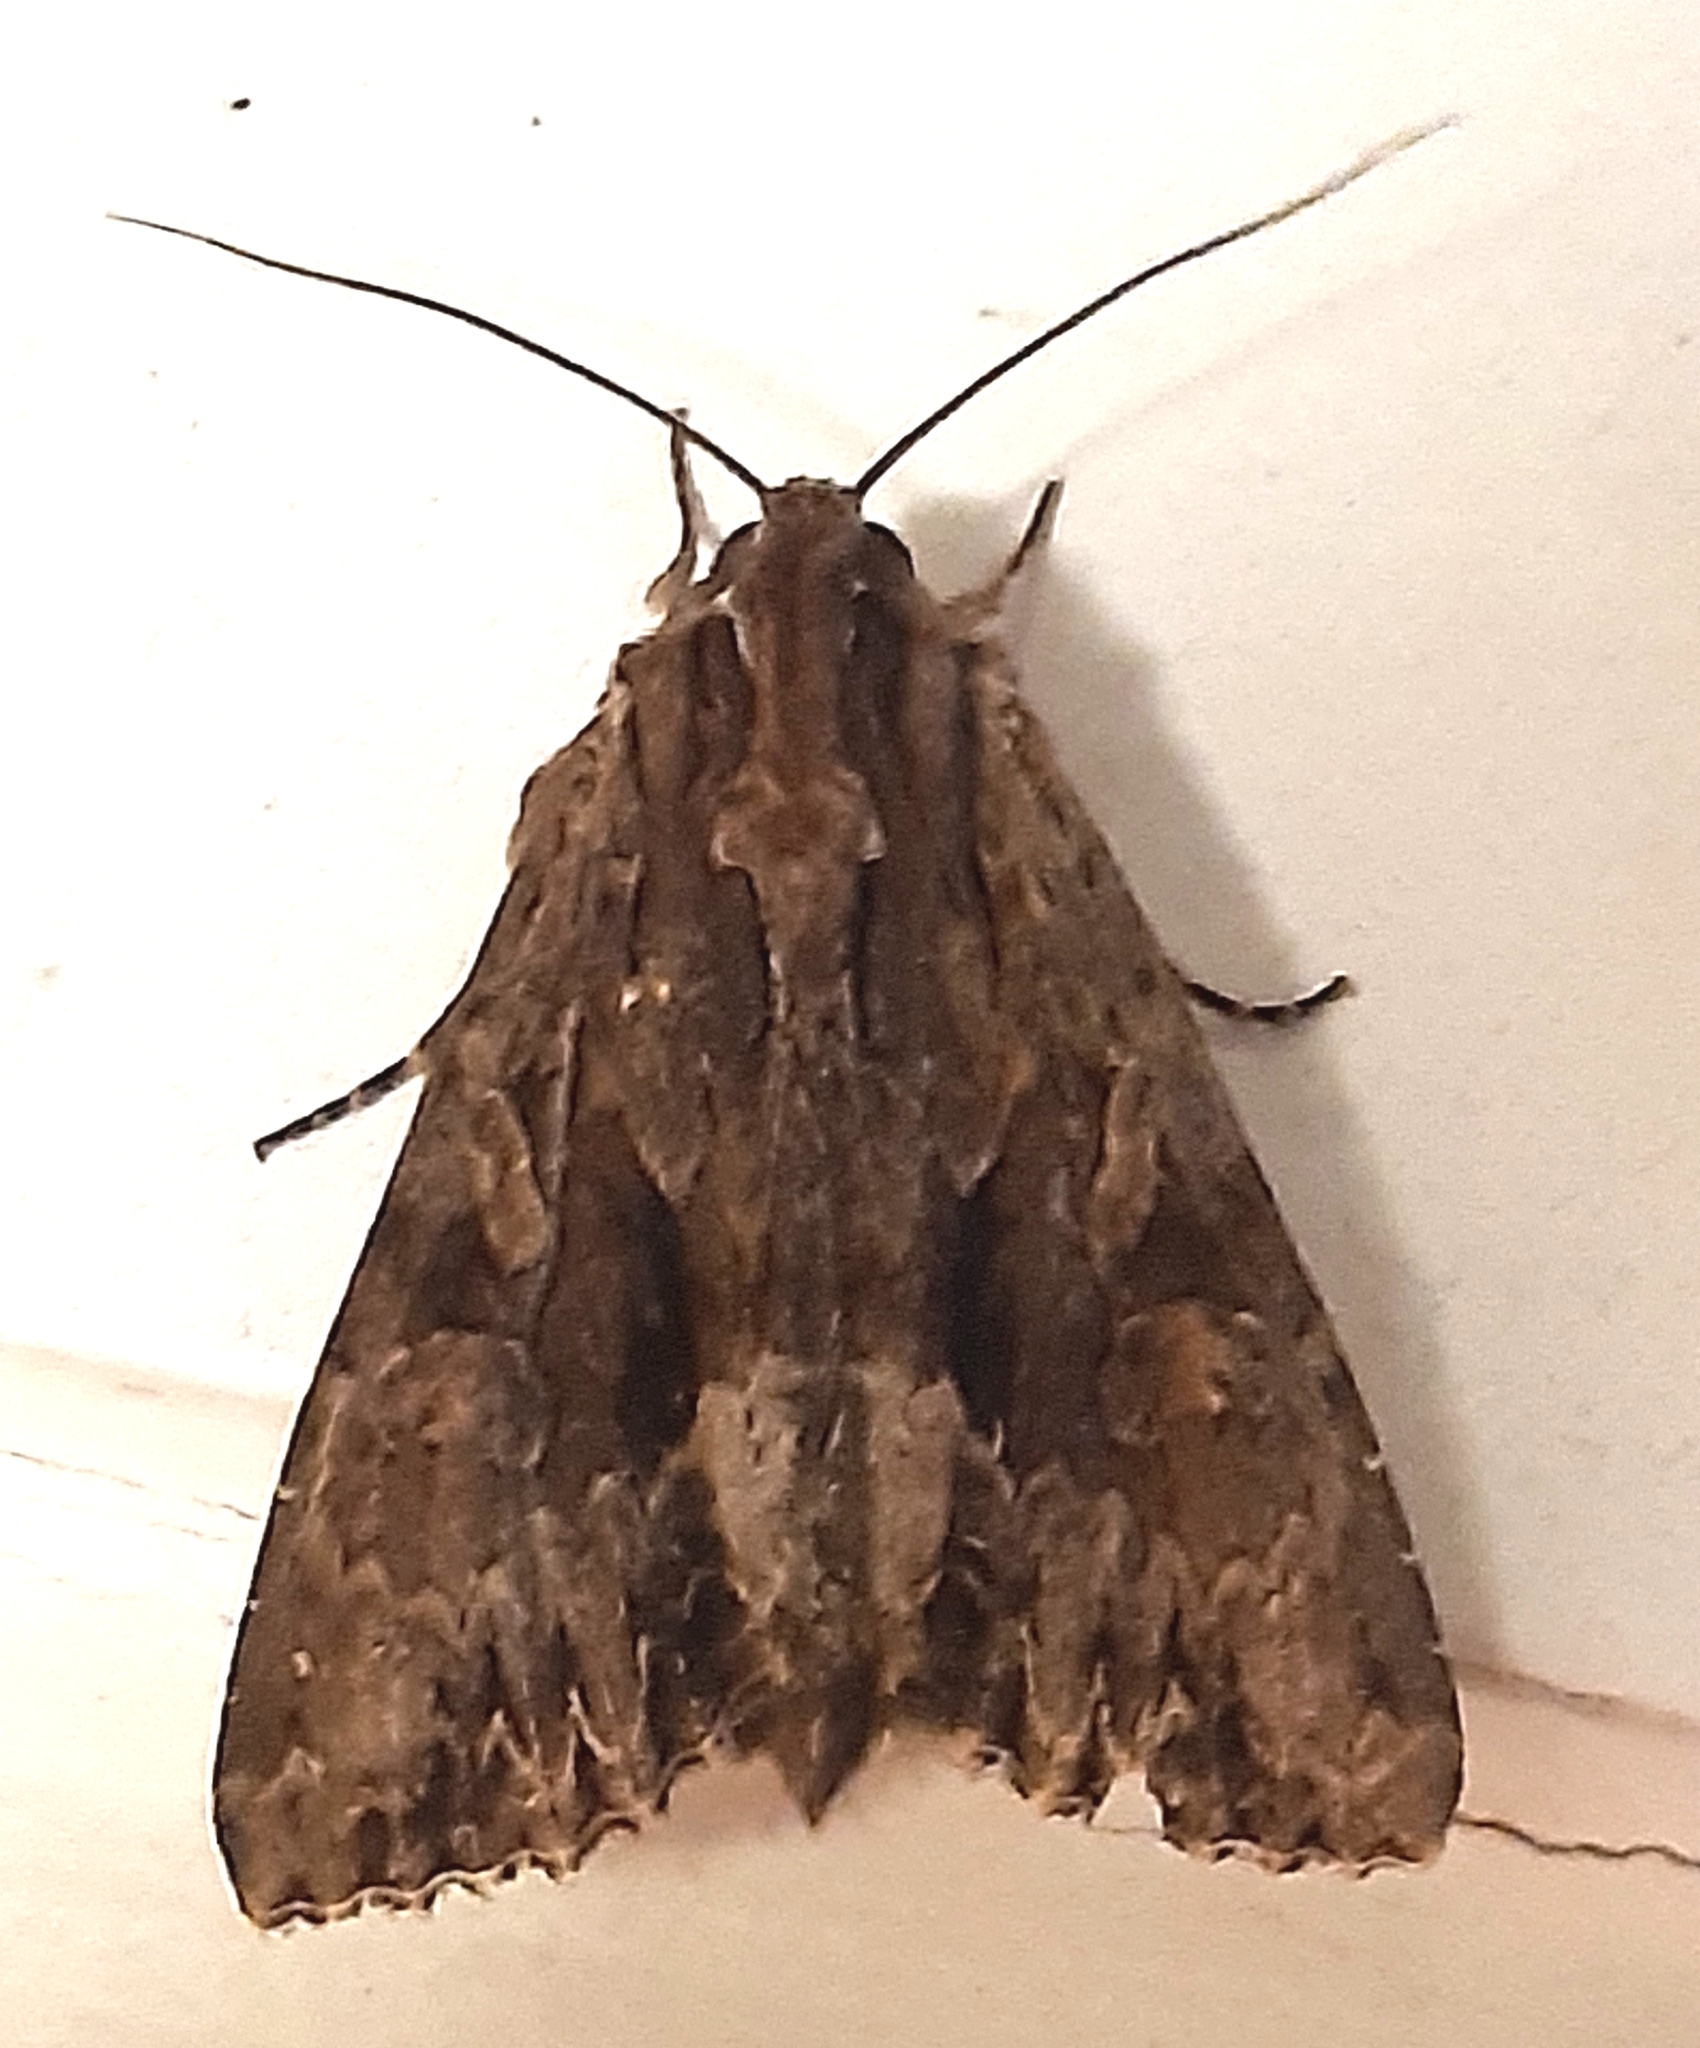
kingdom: Animalia
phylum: Arthropoda
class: Insecta
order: Lepidoptera
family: Noctuidae
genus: Apamea
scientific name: Apamea monoglypha
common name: Dark arches
